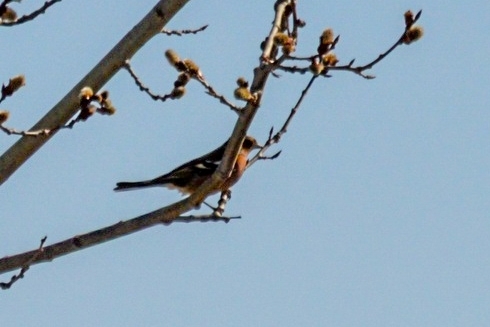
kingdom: Animalia
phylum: Chordata
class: Aves
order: Passeriformes
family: Fringillidae
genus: Fringilla
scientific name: Fringilla coelebs
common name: Common chaffinch
